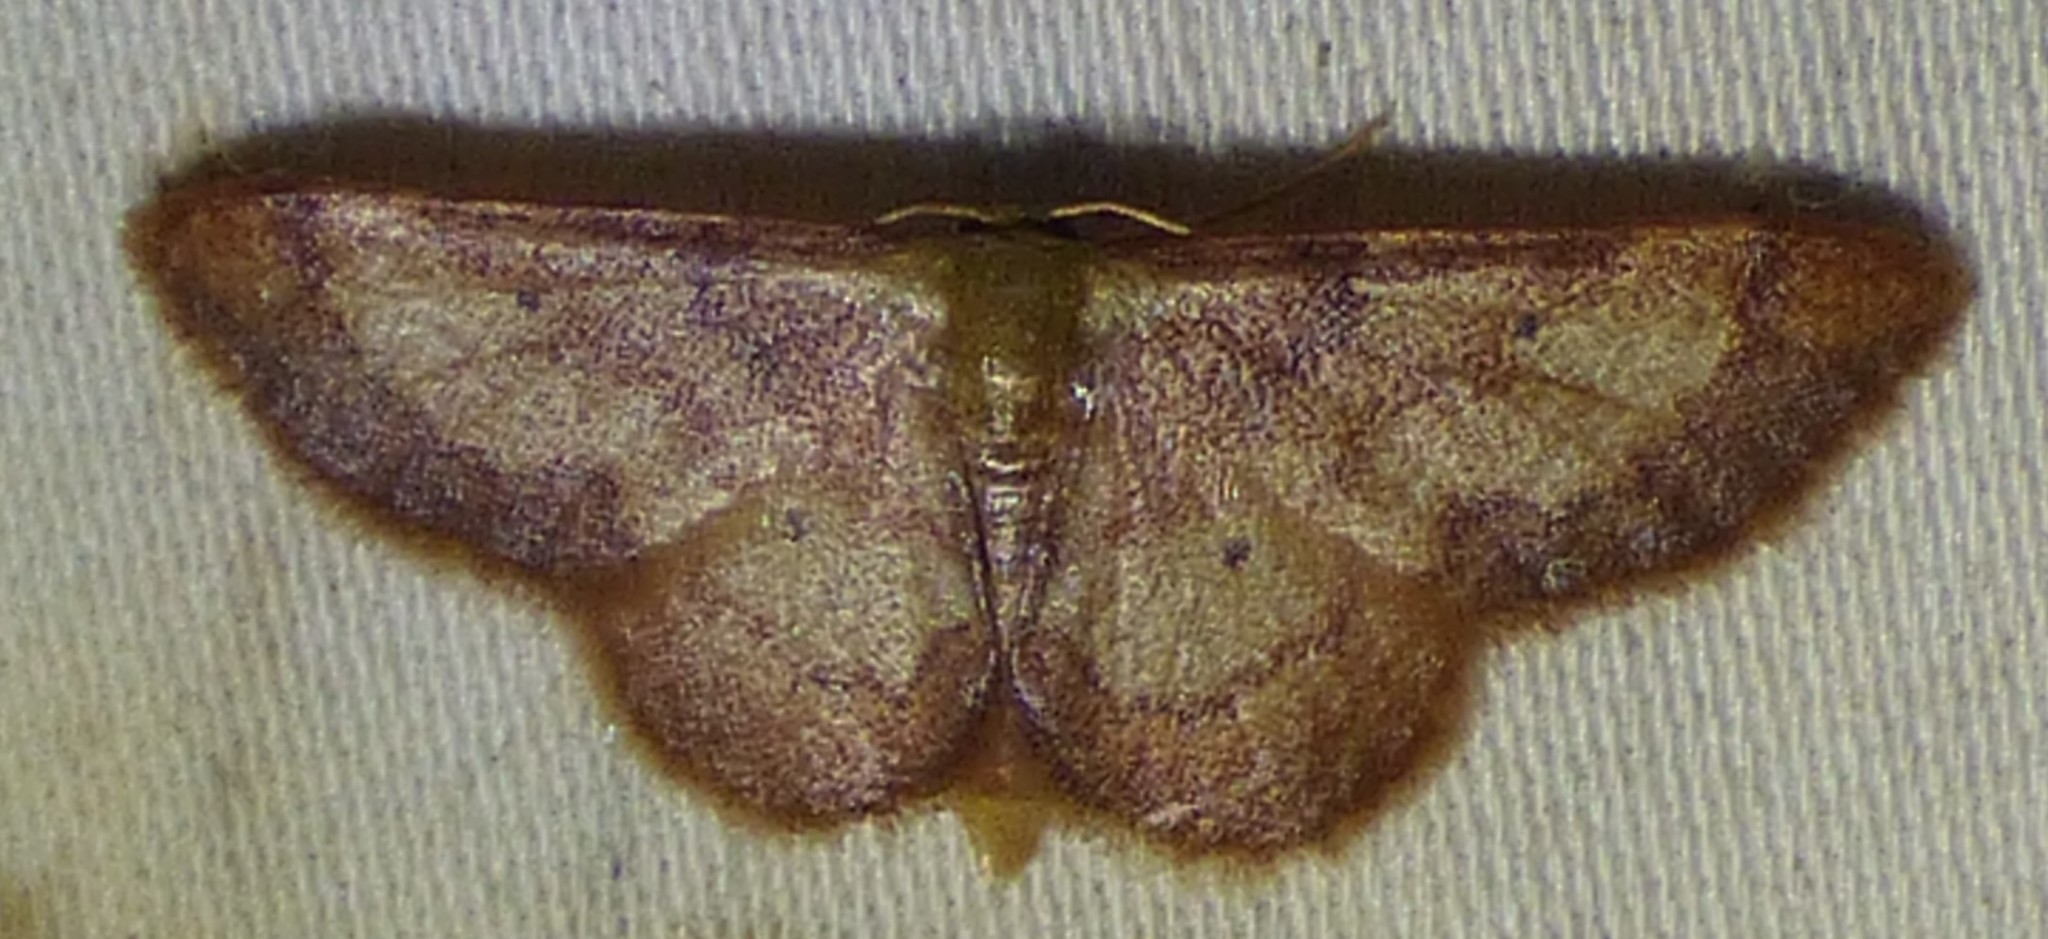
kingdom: Animalia
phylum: Arthropoda
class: Insecta
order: Lepidoptera
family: Geometridae
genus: Idaea
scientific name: Idaea demissaria
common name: Red-bordered wave
